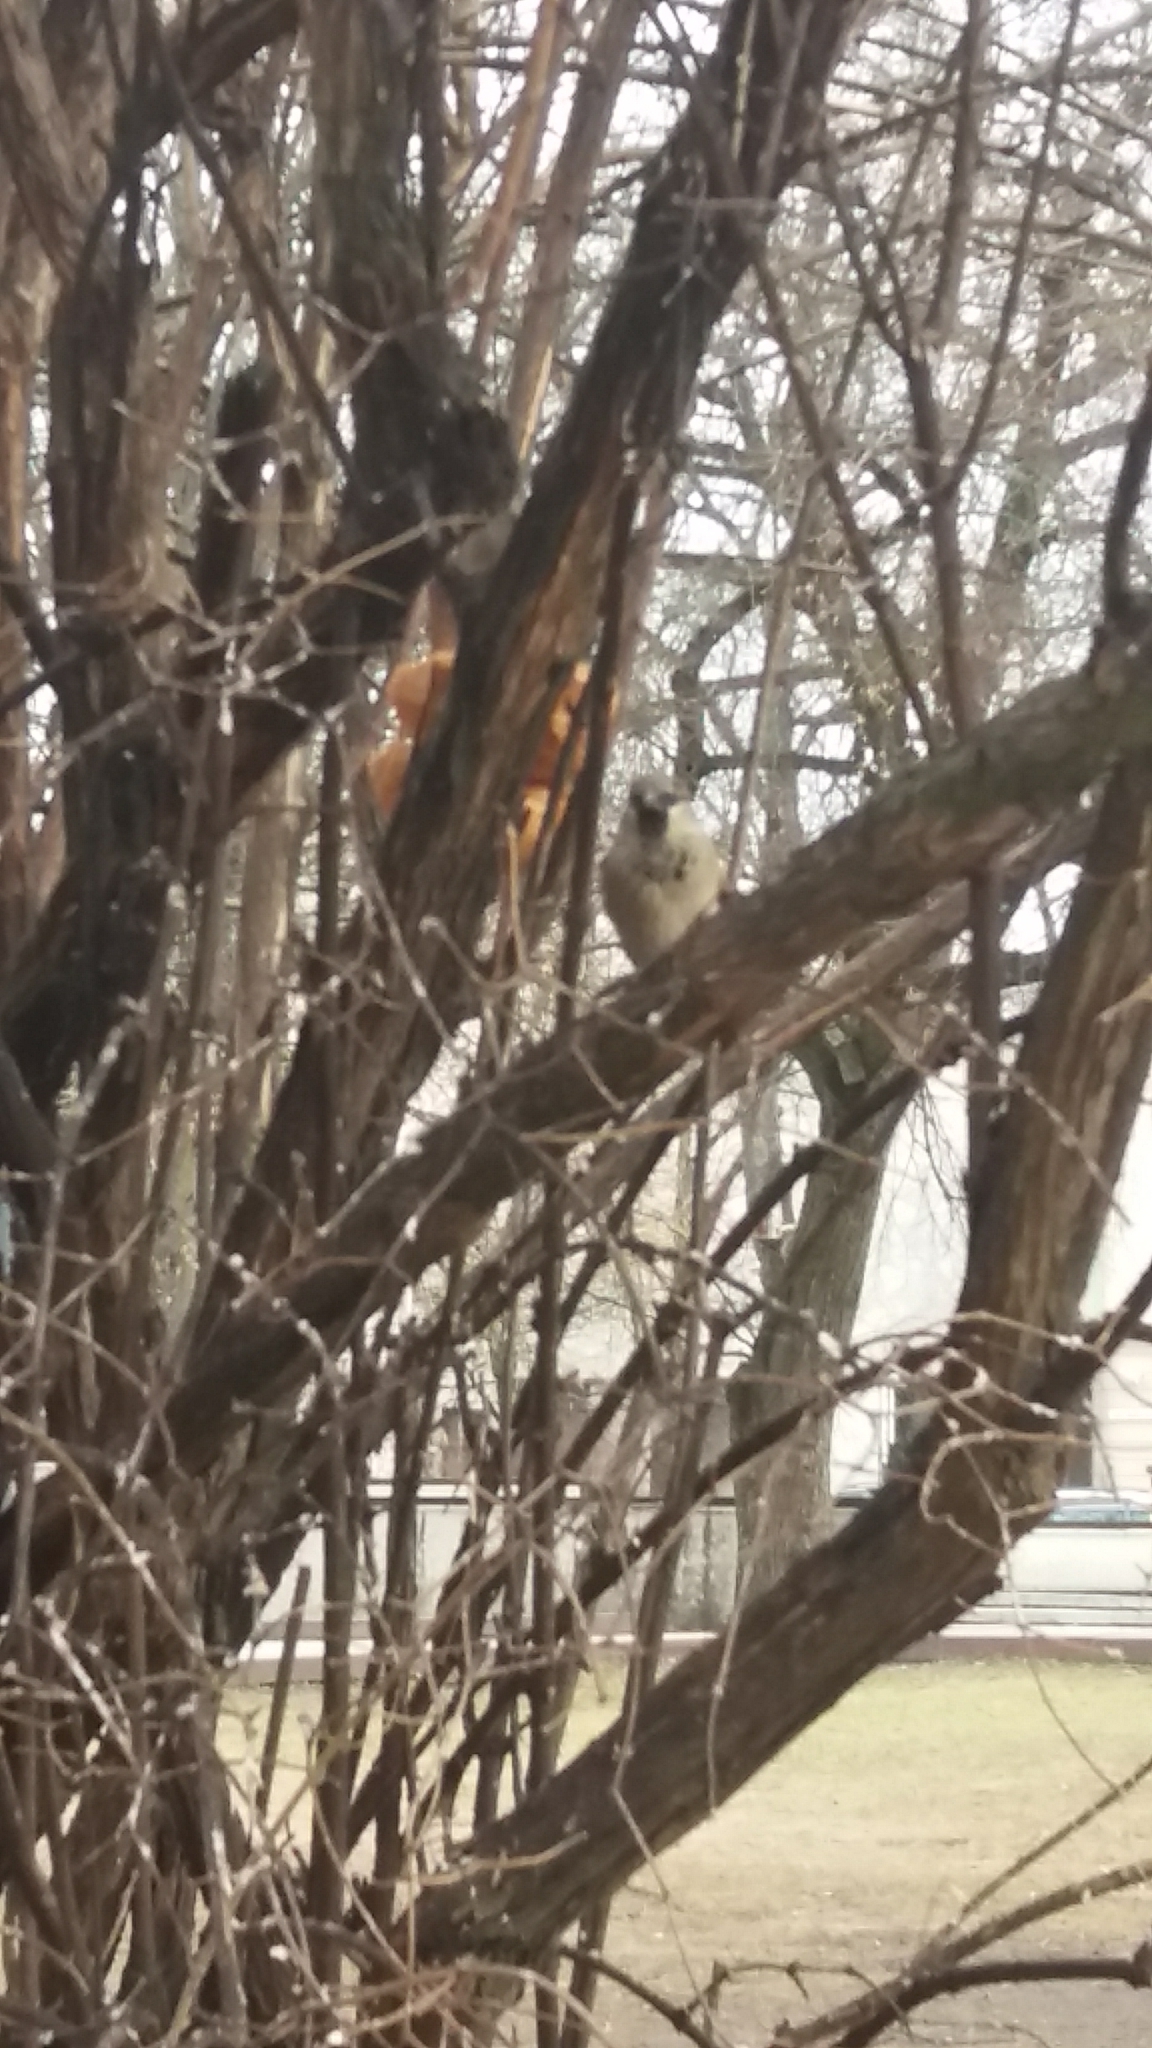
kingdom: Animalia
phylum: Chordata
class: Aves
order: Passeriformes
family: Passeridae
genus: Passer
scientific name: Passer domesticus
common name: House sparrow
